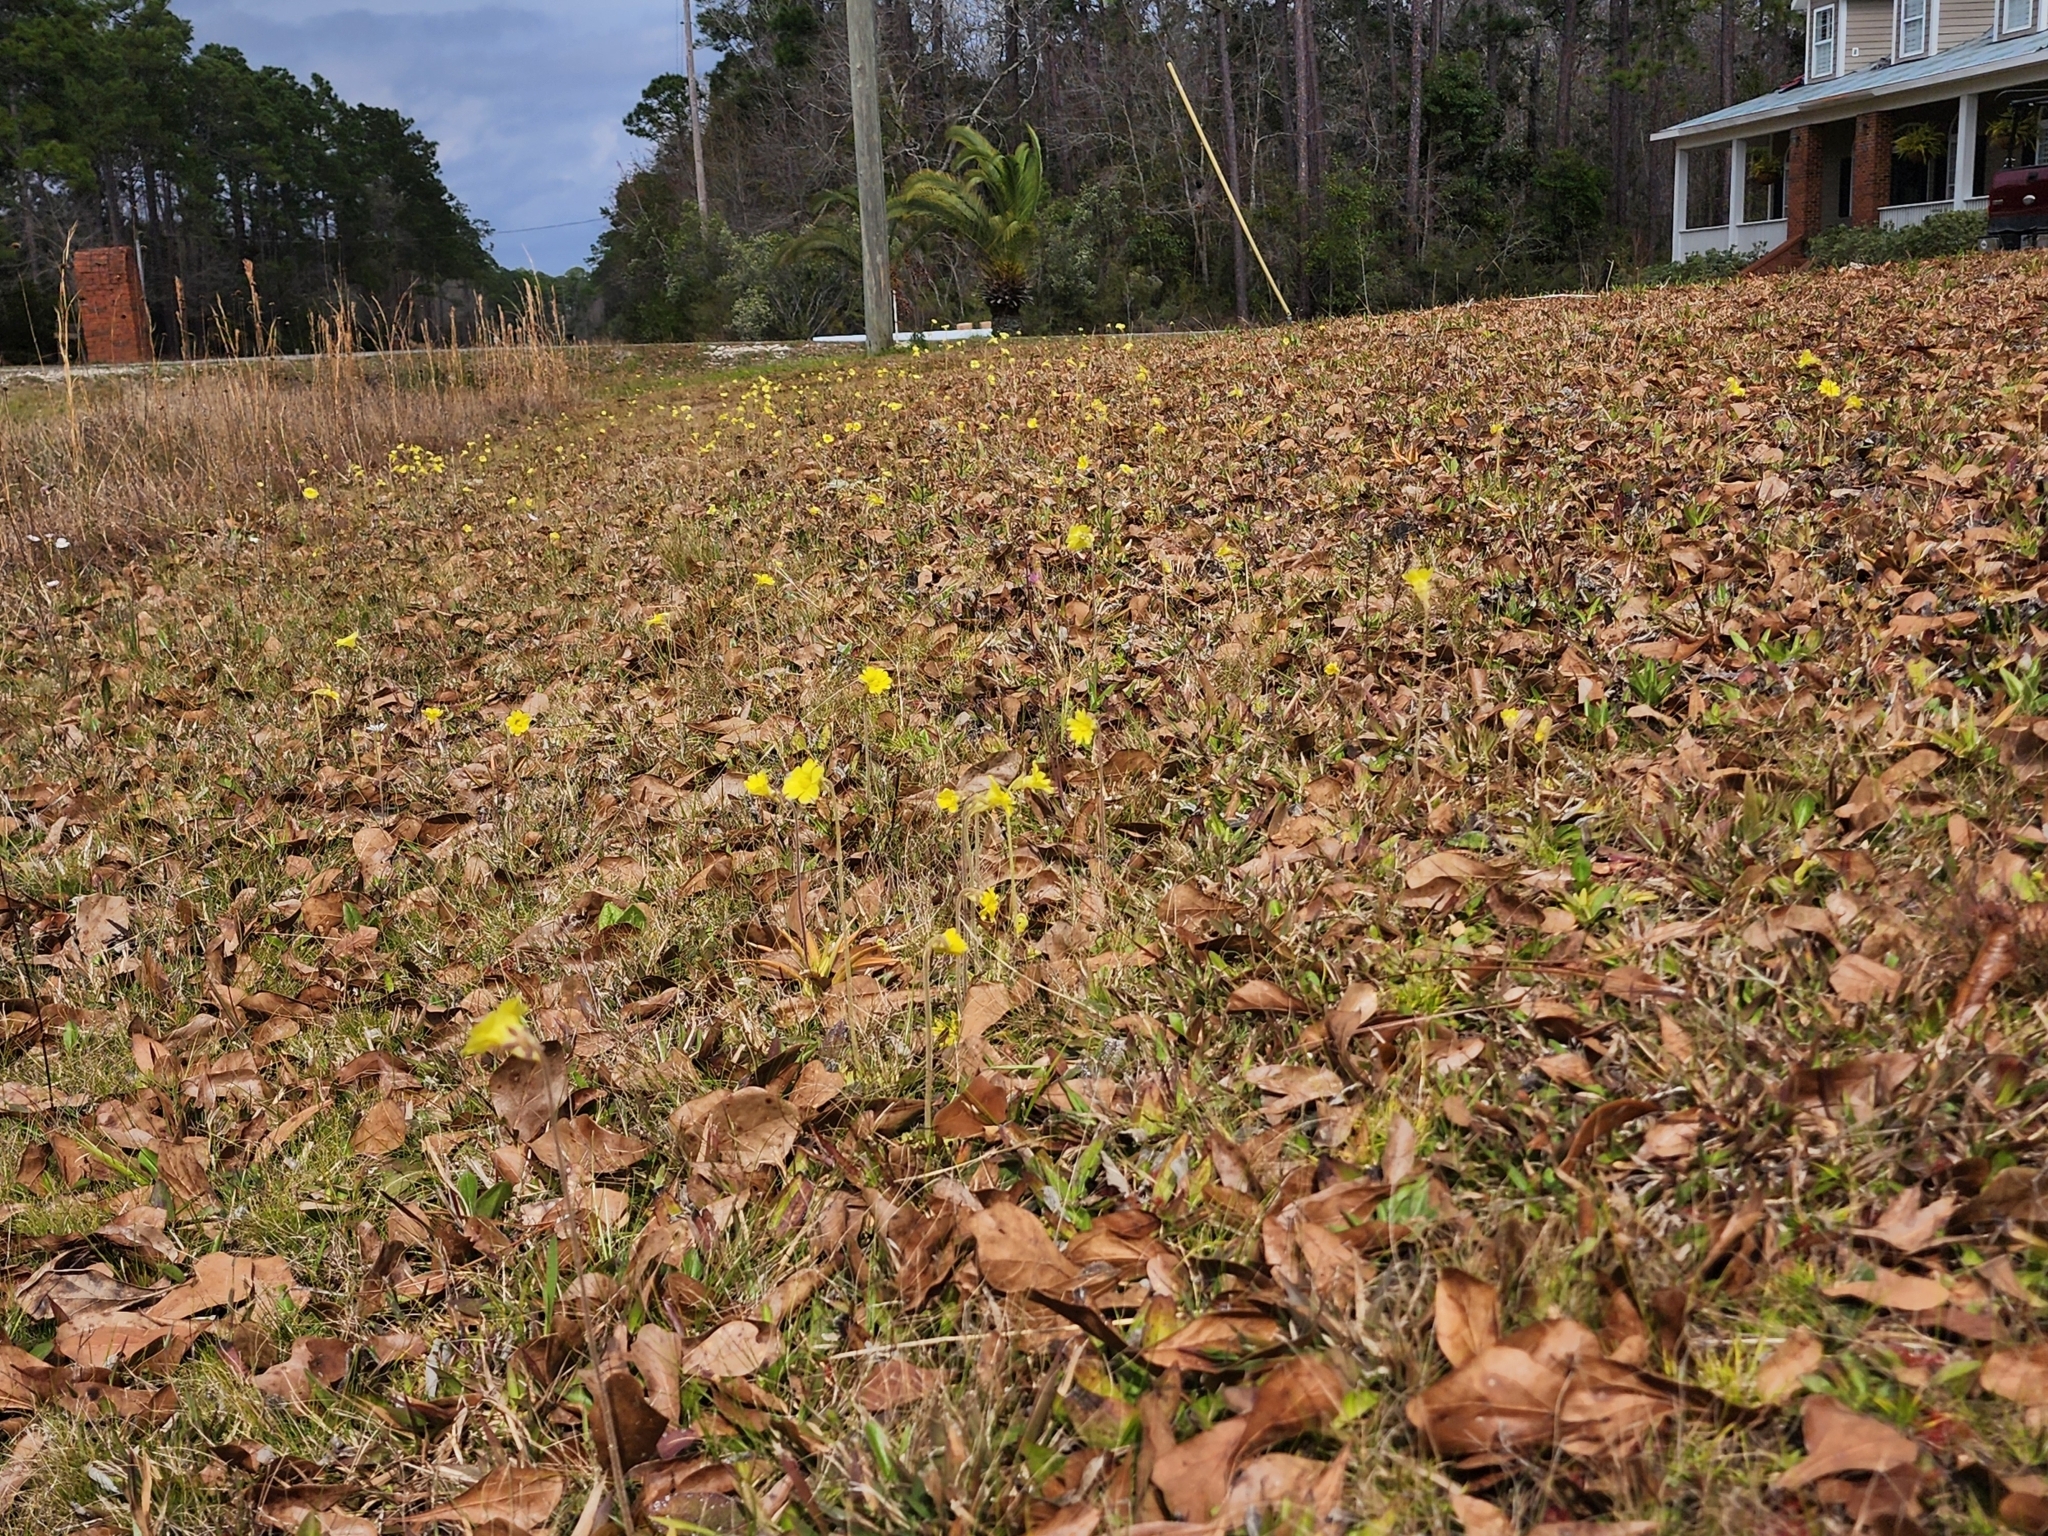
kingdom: Plantae
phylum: Tracheophyta
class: Magnoliopsida
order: Lamiales
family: Lentibulariaceae
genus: Pinguicula
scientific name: Pinguicula lutea
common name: Yellow butterwort
